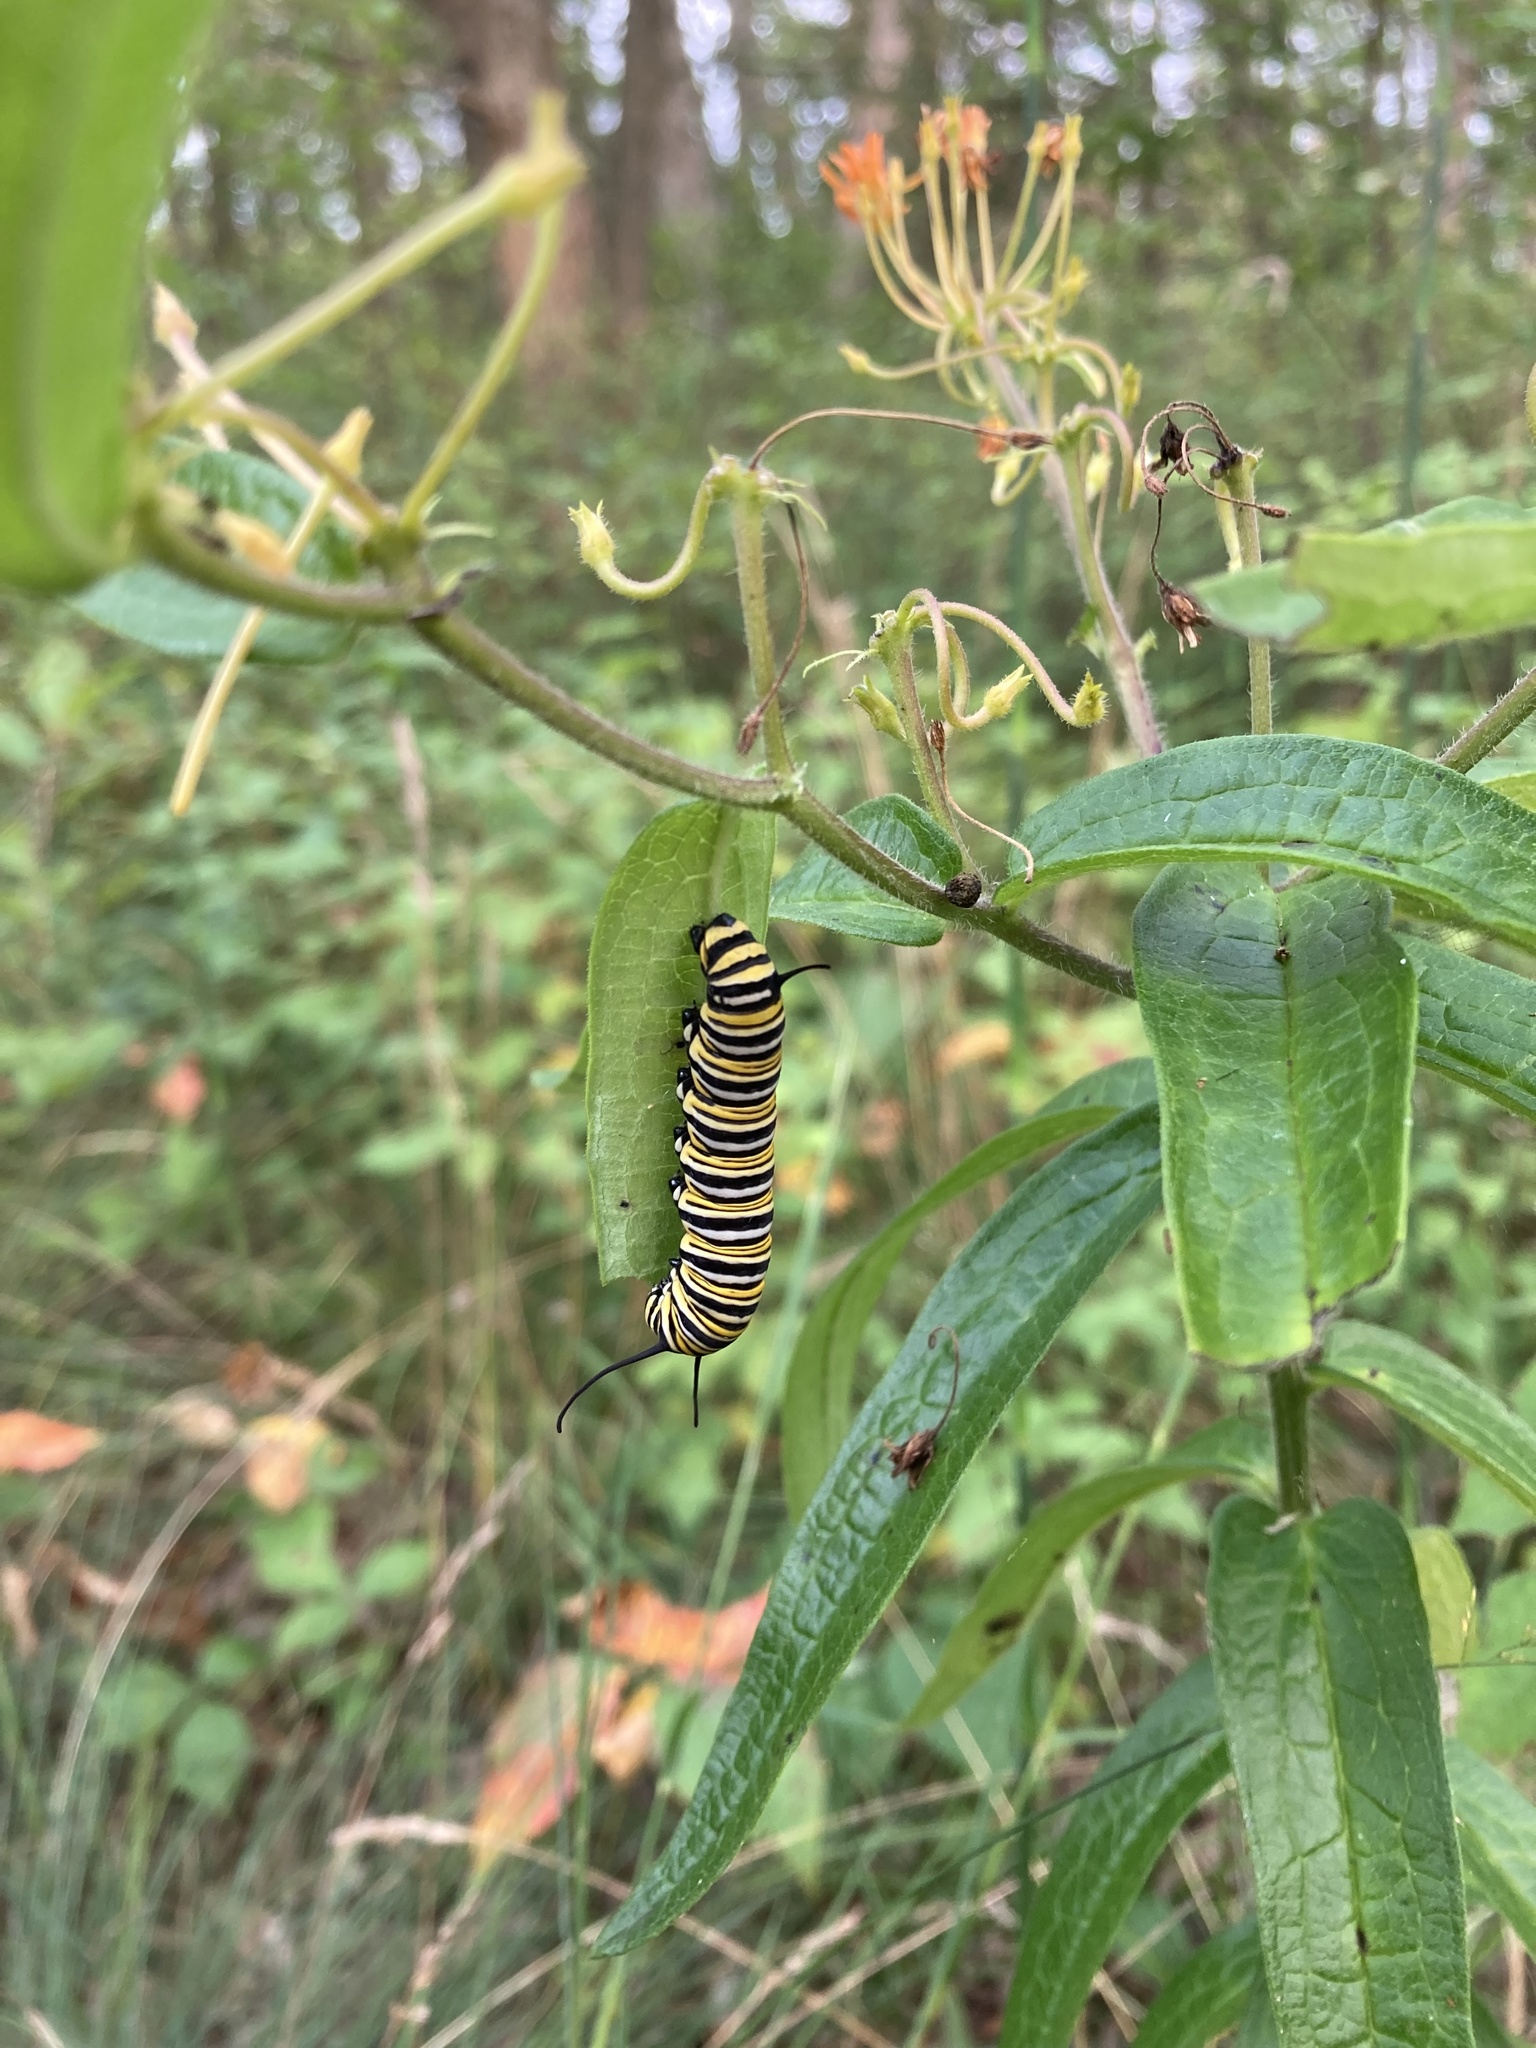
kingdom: Animalia
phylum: Arthropoda
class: Insecta
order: Lepidoptera
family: Nymphalidae
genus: Danaus
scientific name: Danaus plexippus
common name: Monarch
